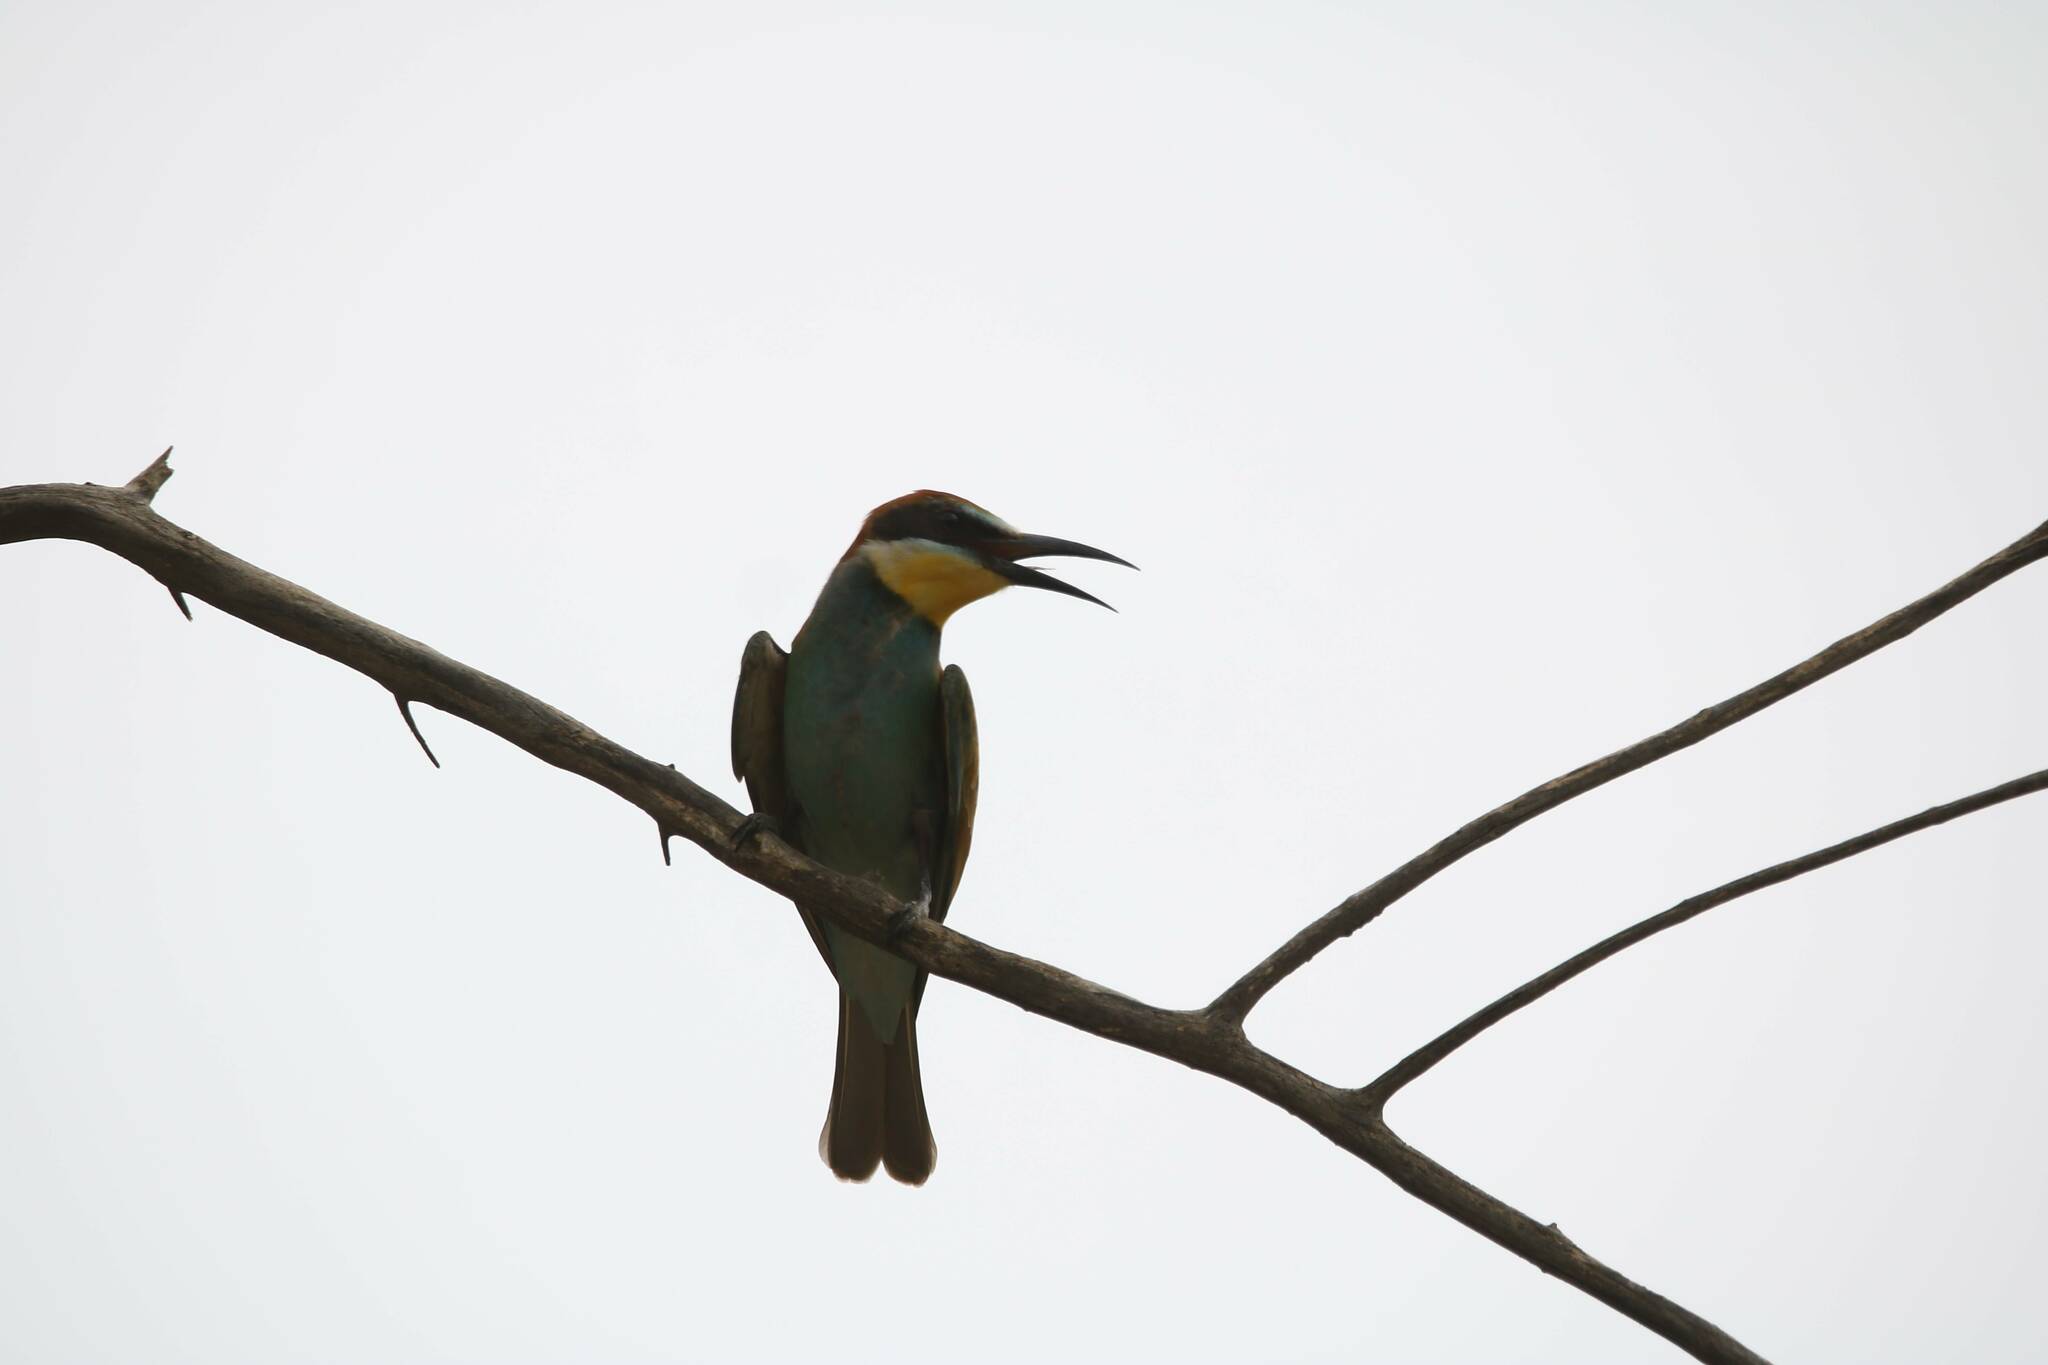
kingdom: Animalia
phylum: Chordata
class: Aves
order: Coraciiformes
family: Meropidae
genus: Merops
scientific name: Merops apiaster
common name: European bee-eater
